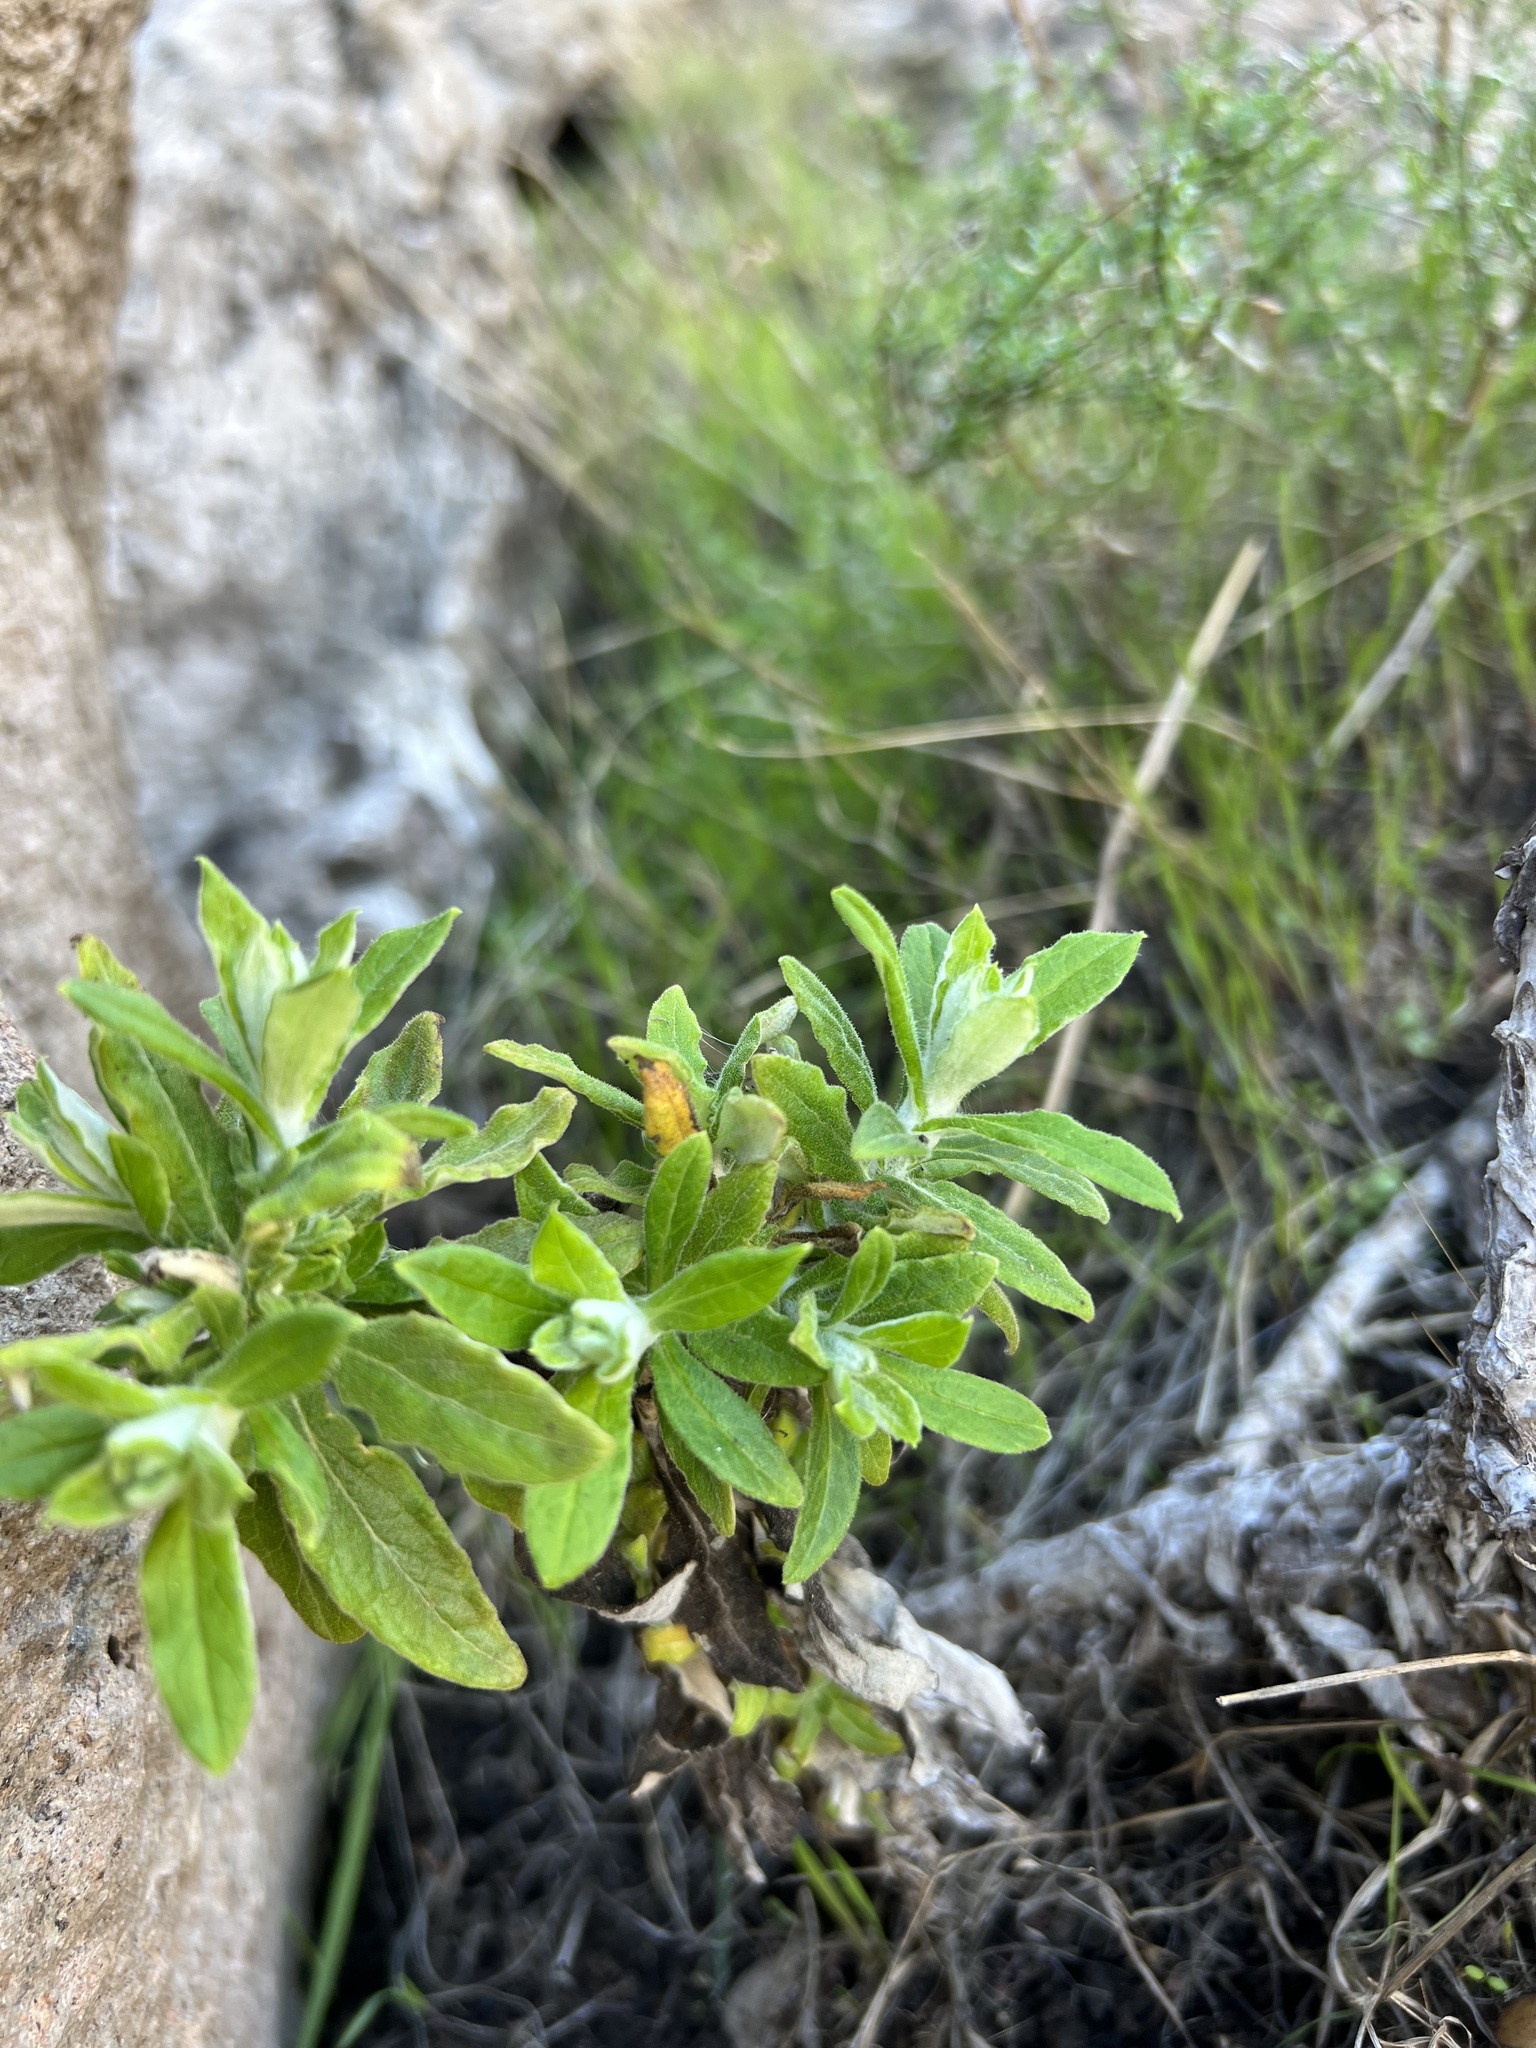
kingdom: Plantae
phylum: Tracheophyta
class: Magnoliopsida
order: Asterales
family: Asteraceae
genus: Pseudognaphalium
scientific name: Pseudognaphalium biolettii
